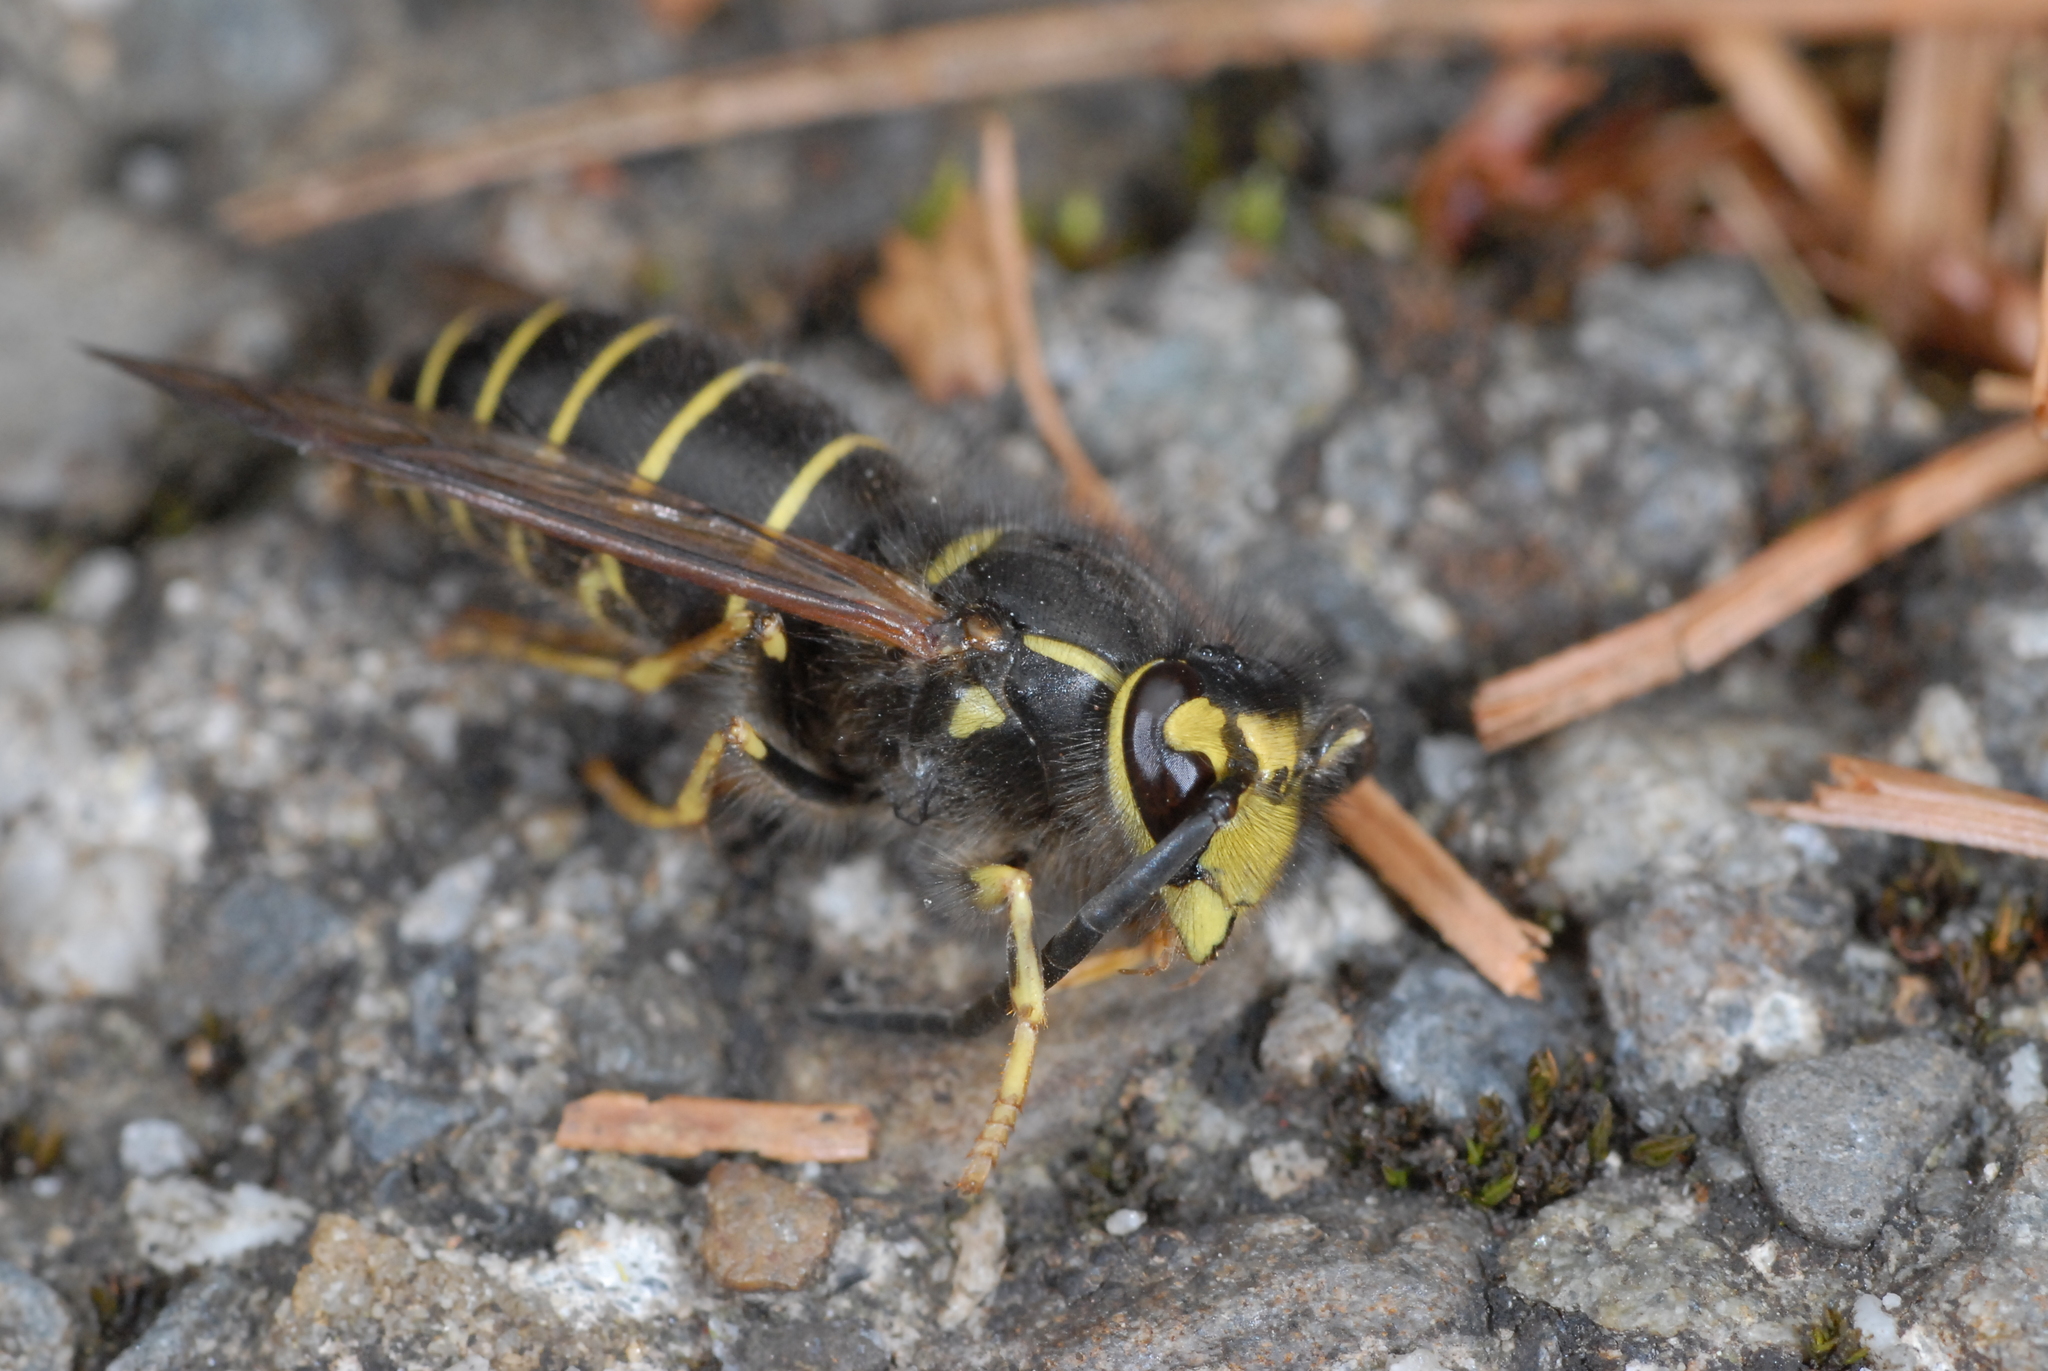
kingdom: Animalia
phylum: Arthropoda
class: Insecta
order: Hymenoptera
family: Vespidae
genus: Vespula
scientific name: Vespula flaviceps
